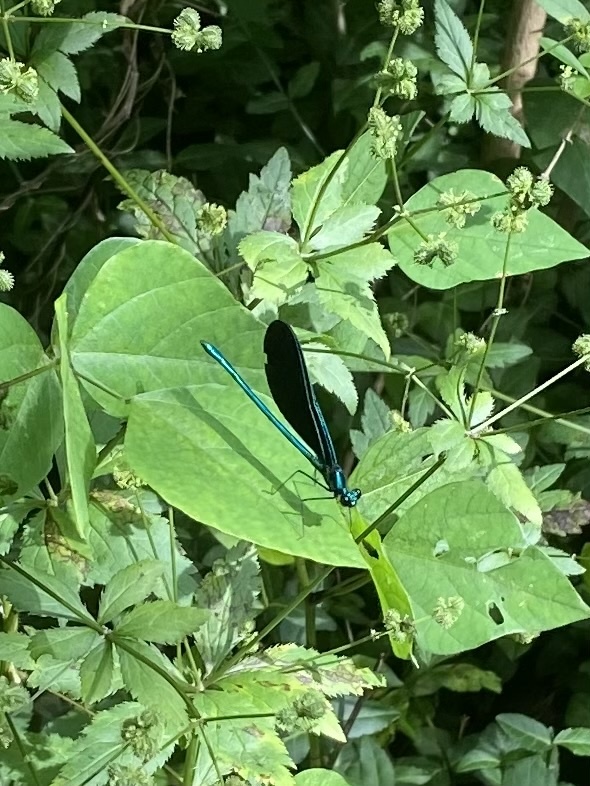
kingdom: Animalia
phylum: Arthropoda
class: Insecta
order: Odonata
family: Calopterygidae
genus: Calopteryx
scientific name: Calopteryx maculata
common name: Ebony jewelwing
